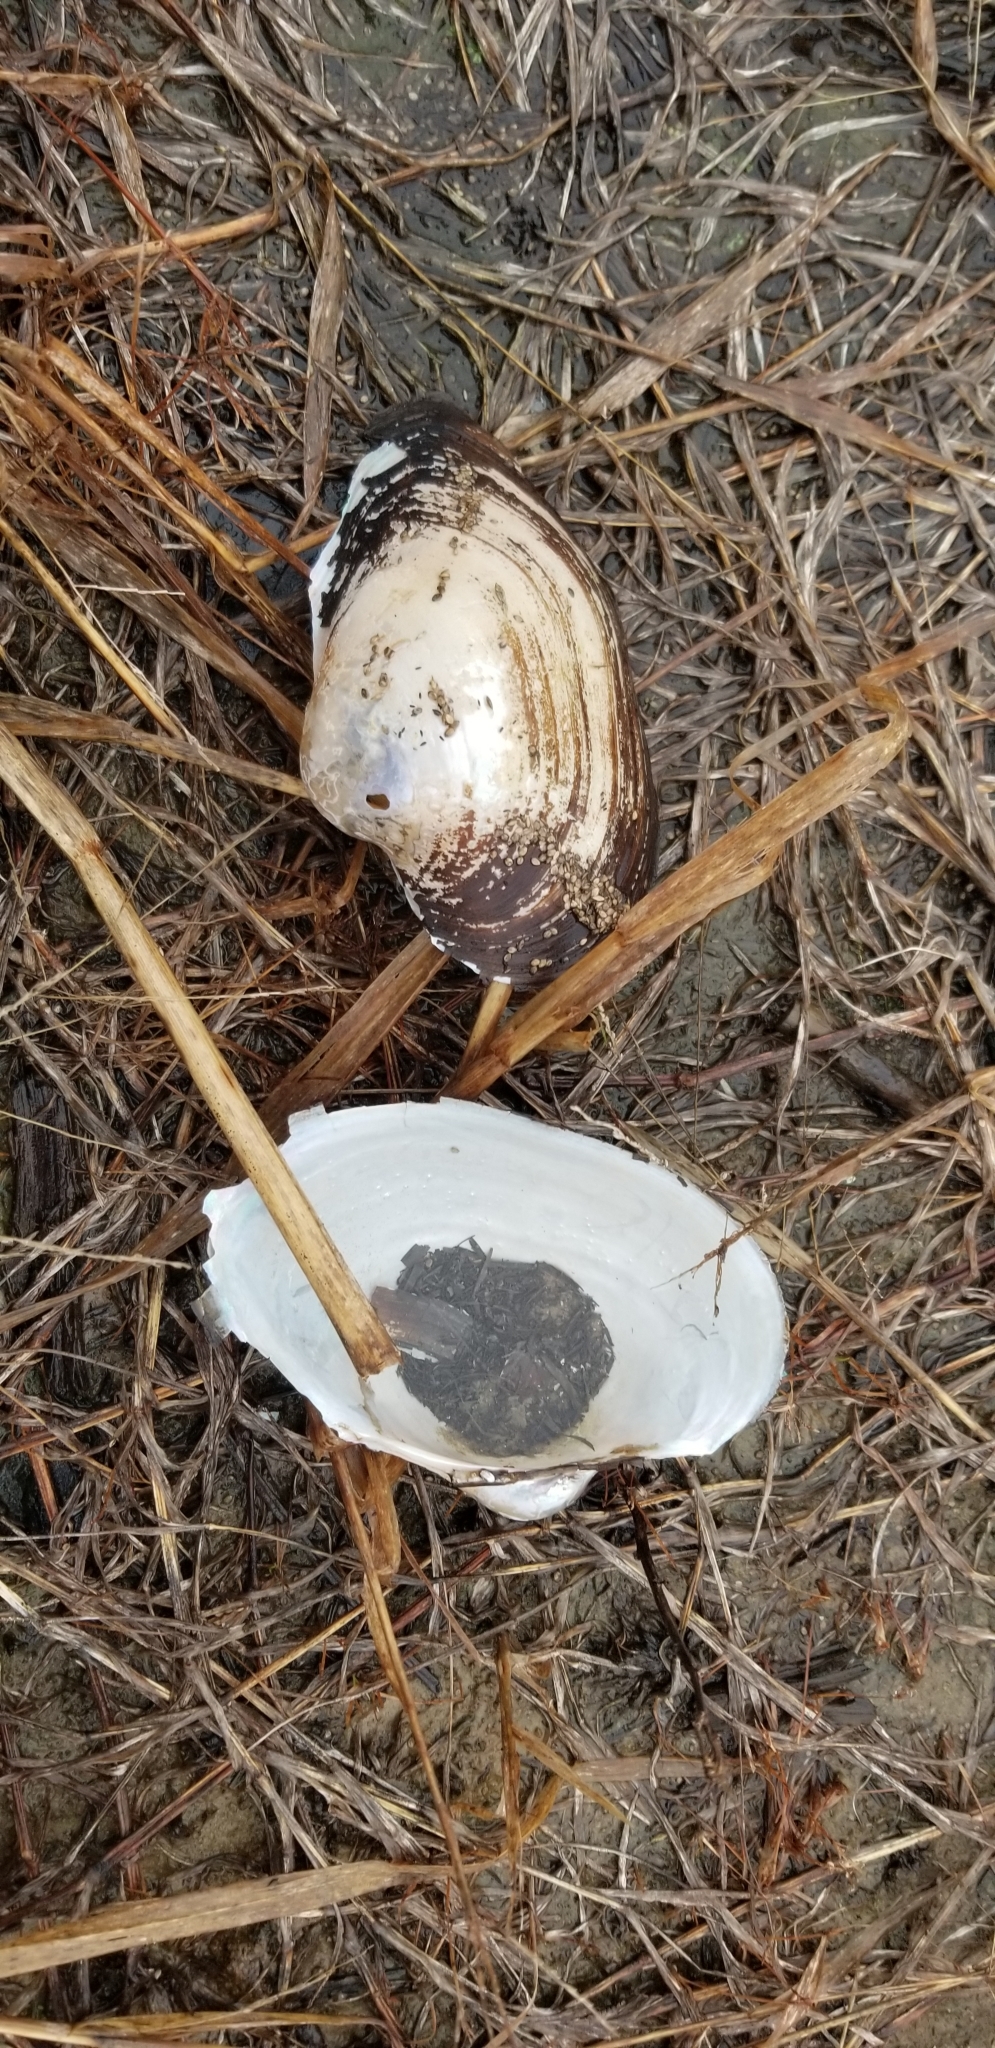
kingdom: Animalia
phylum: Mollusca
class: Bivalvia
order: Unionida
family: Unionidae
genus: Pyganodon
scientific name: Pyganodon grandis
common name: Giant floater
